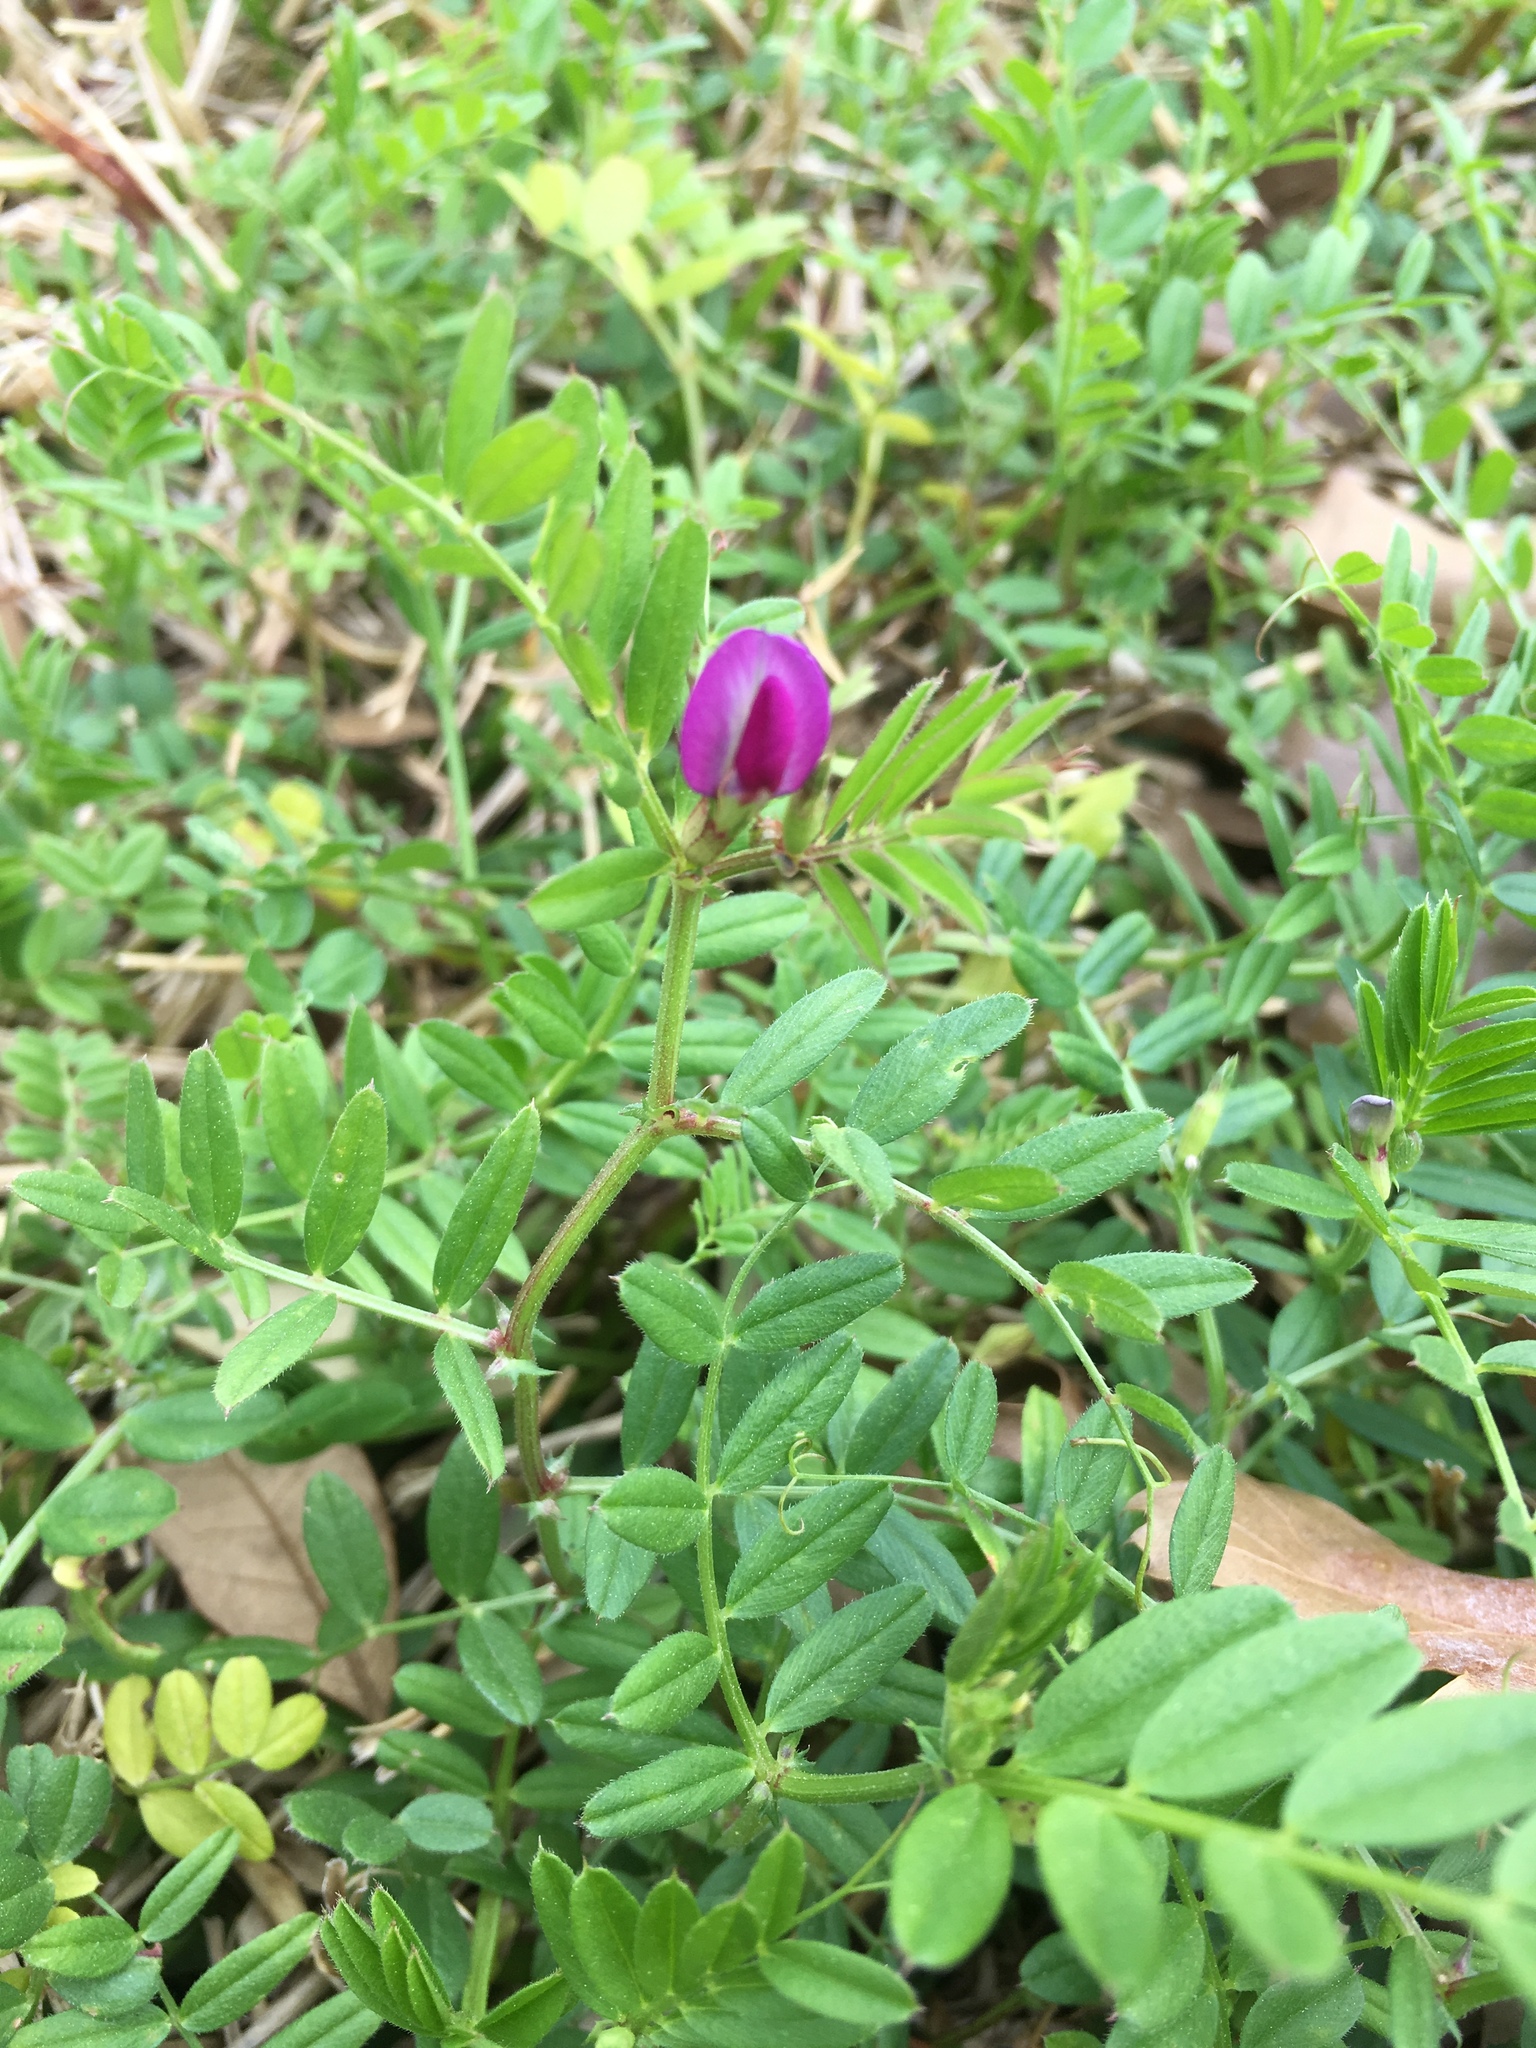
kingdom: Plantae
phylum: Tracheophyta
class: Magnoliopsida
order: Fabales
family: Fabaceae
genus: Vicia
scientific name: Vicia sativa
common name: Garden vetch
